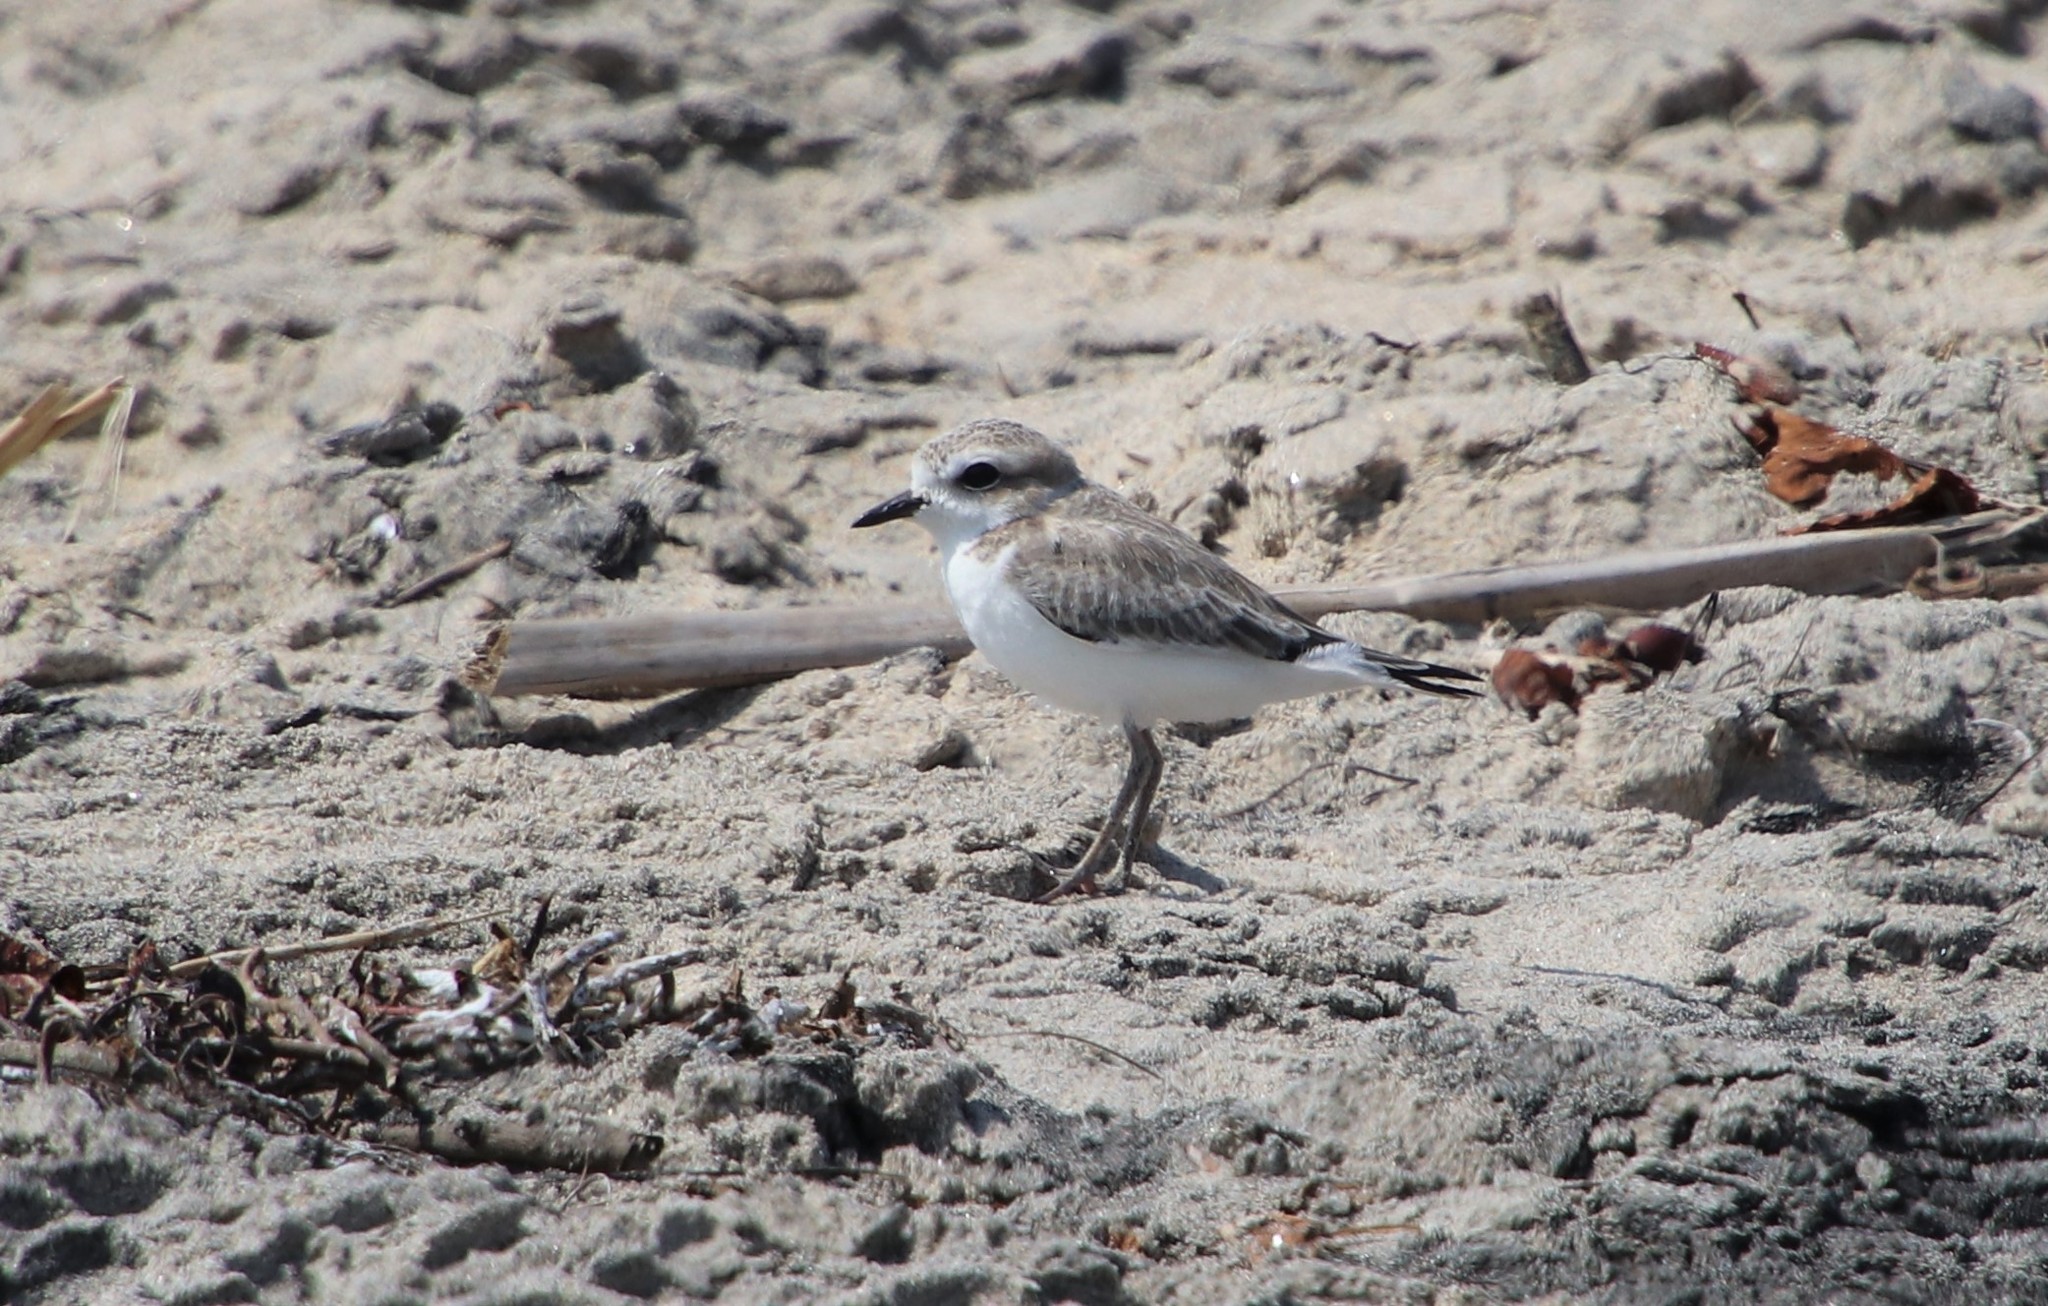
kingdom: Animalia
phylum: Chordata
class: Aves
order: Charadriiformes
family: Charadriidae
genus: Anarhynchus
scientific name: Anarhynchus
